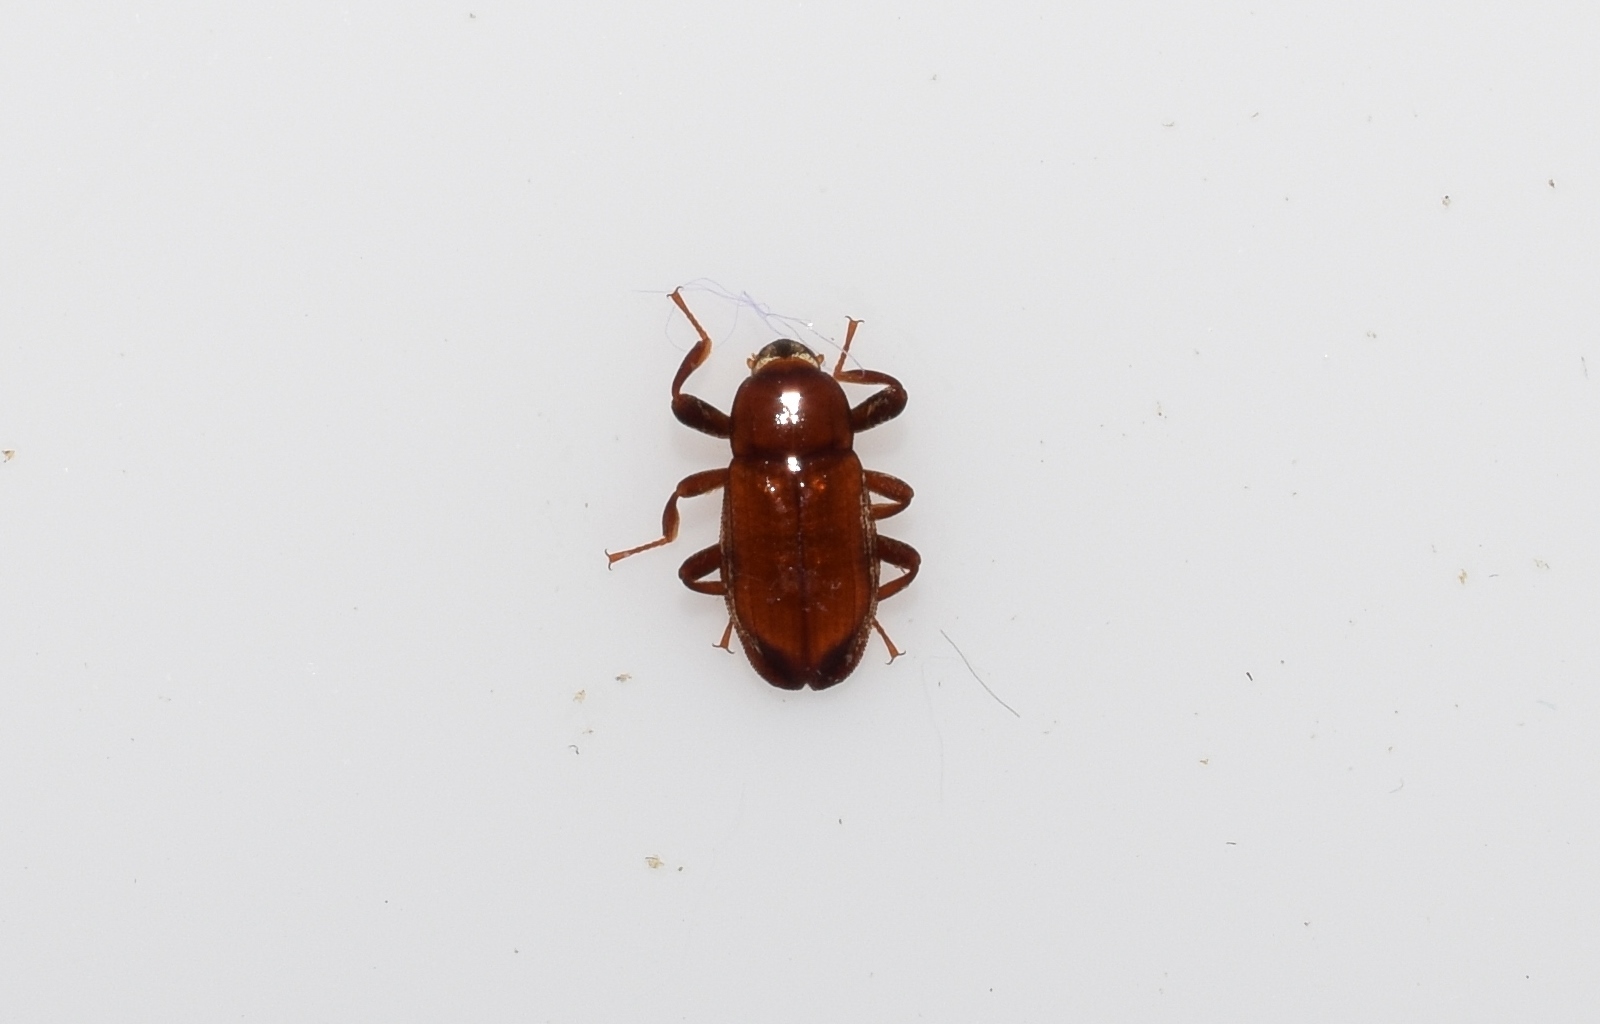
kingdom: Animalia
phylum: Arthropoda
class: Insecta
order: Coleoptera
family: Elmidae
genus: Paramacronychus
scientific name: Paramacronychus granulatus
